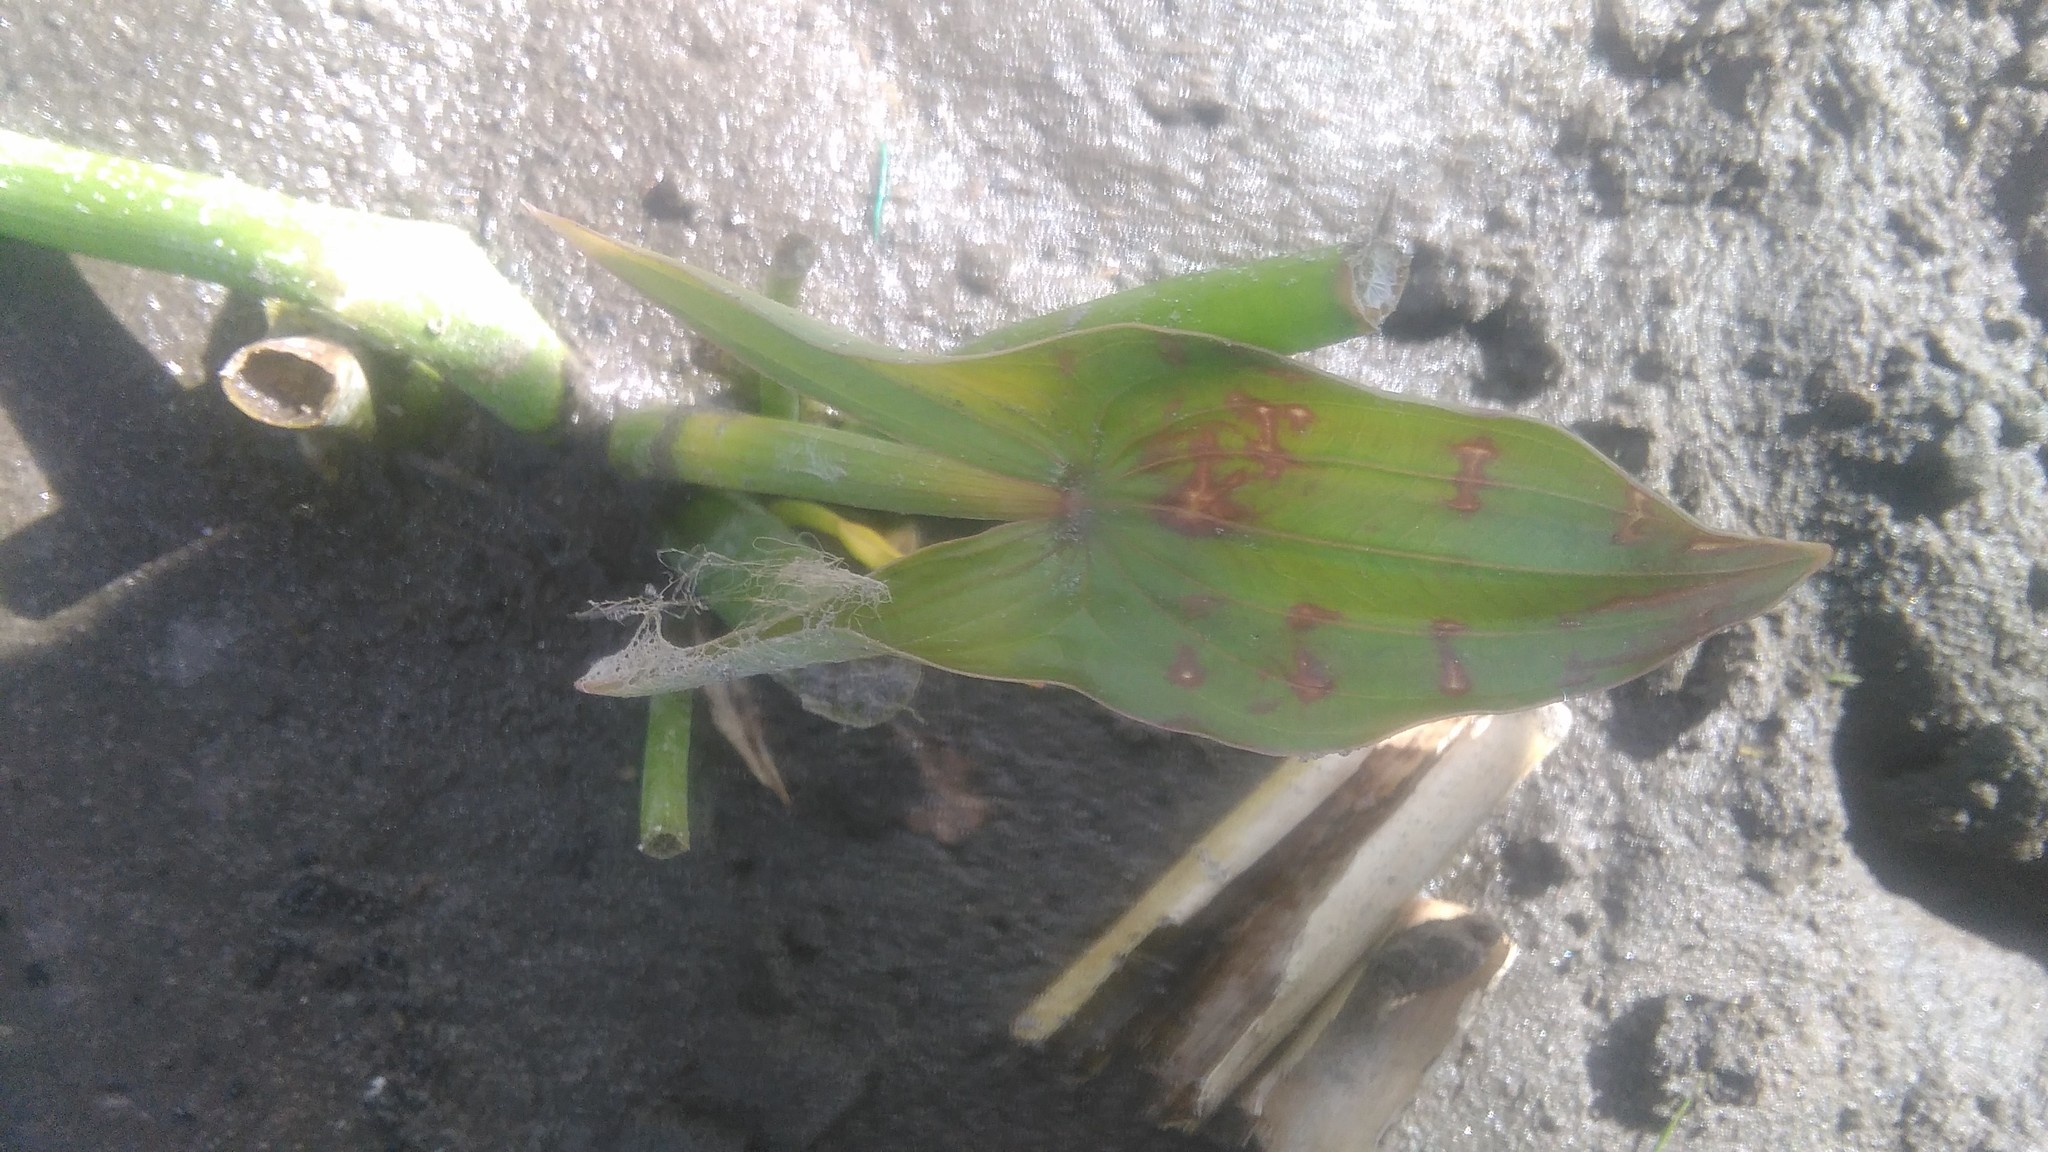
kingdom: Plantae
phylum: Tracheophyta
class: Liliopsida
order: Alismatales
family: Alismataceae
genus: Sagittaria
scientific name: Sagittaria montevidensis
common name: Giant arrowhead
